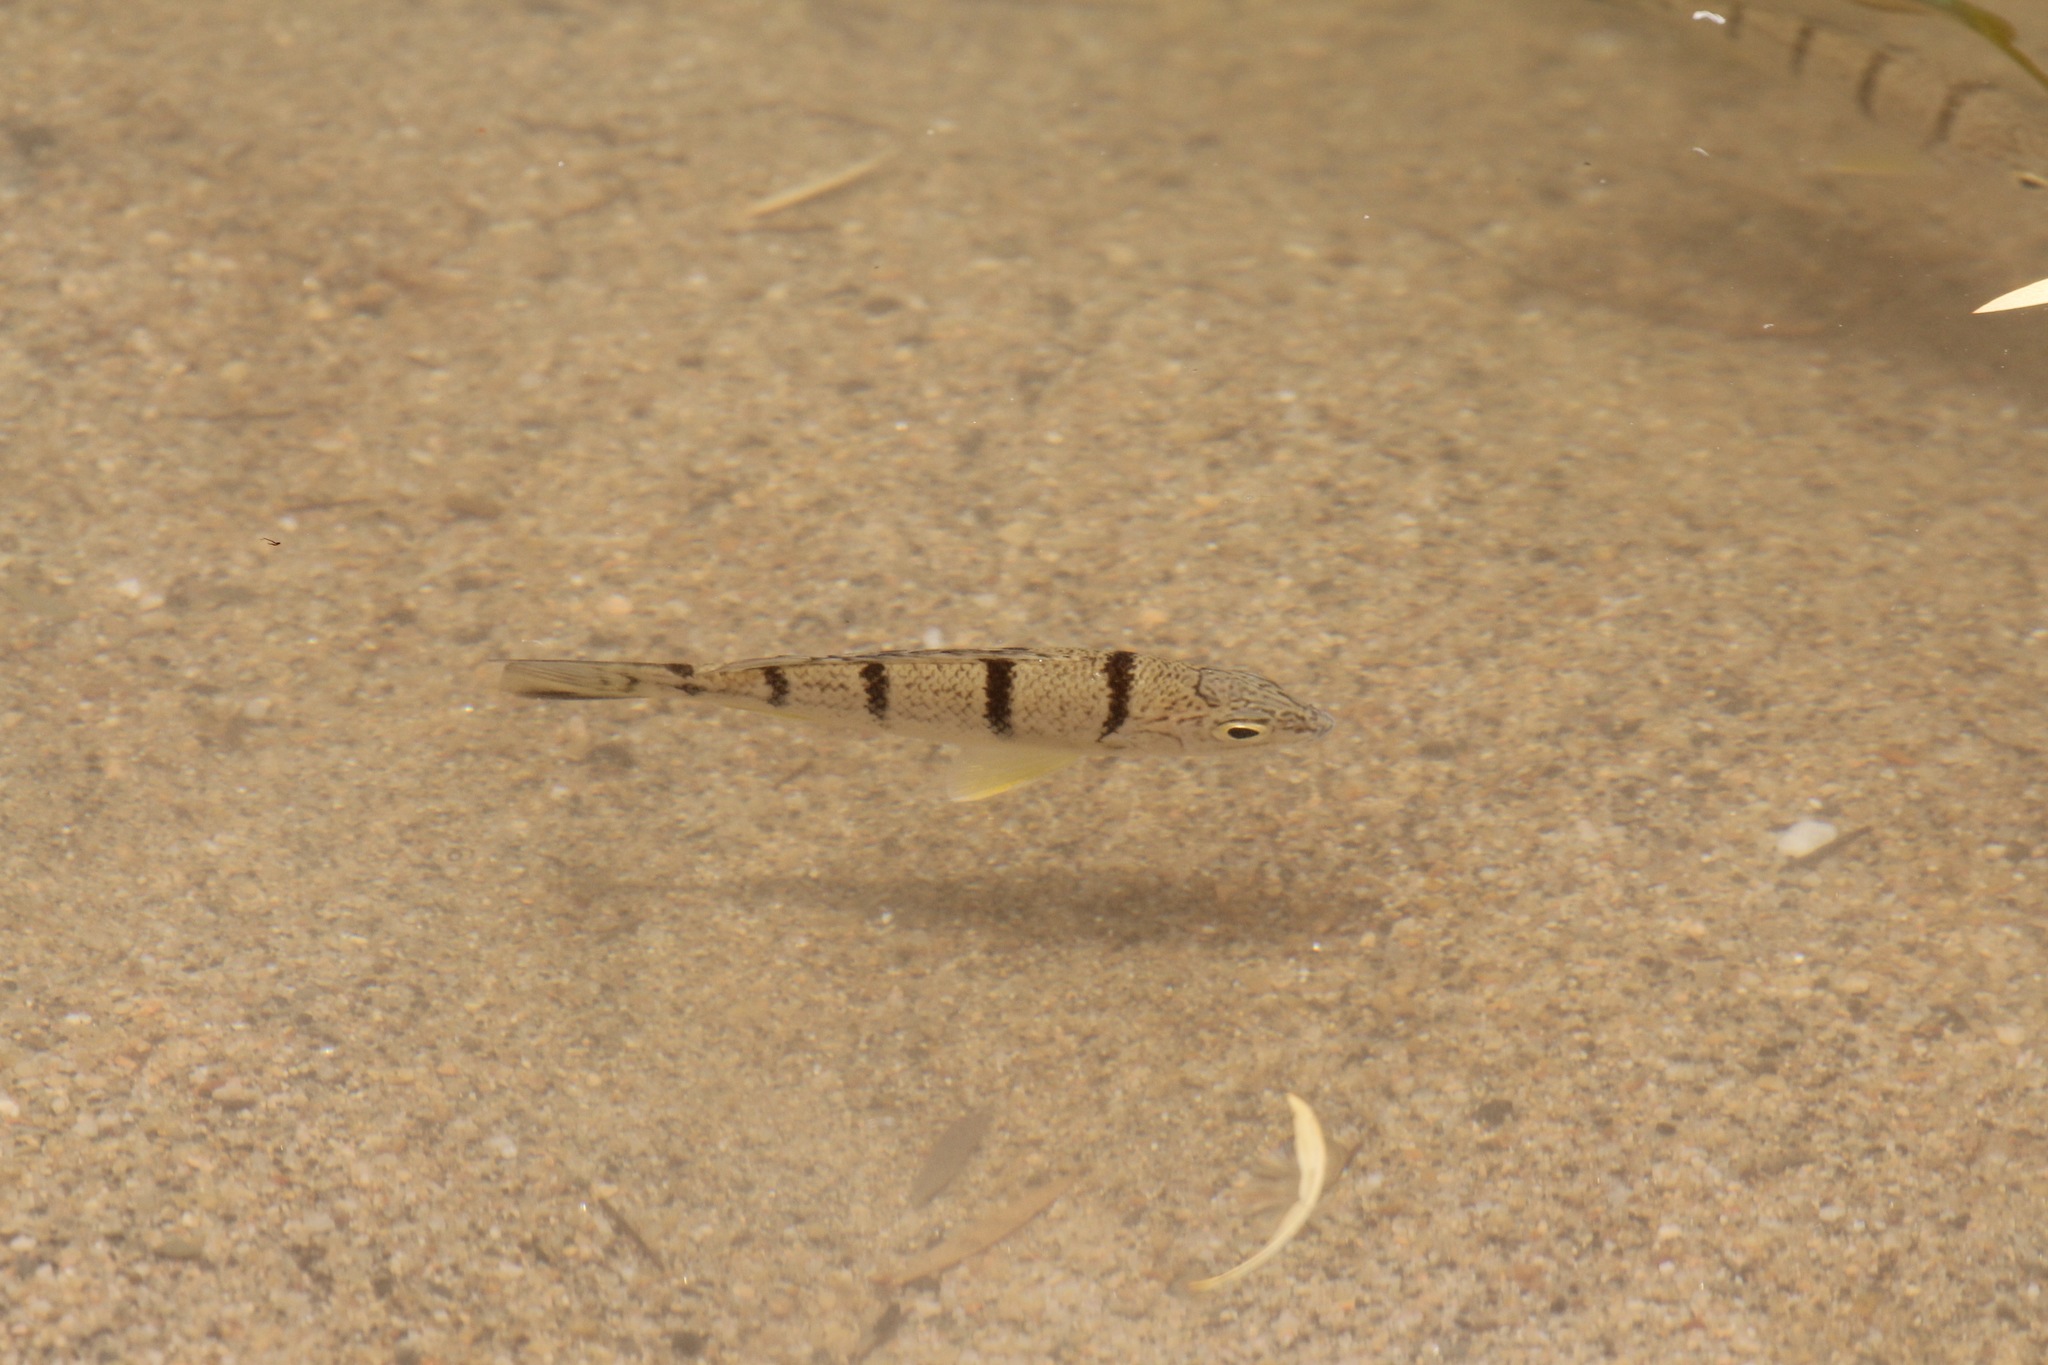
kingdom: Animalia
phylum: Chordata
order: Perciformes
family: Terapontidae
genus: Amniataba
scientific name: Amniataba percoides
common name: Banded grunter
